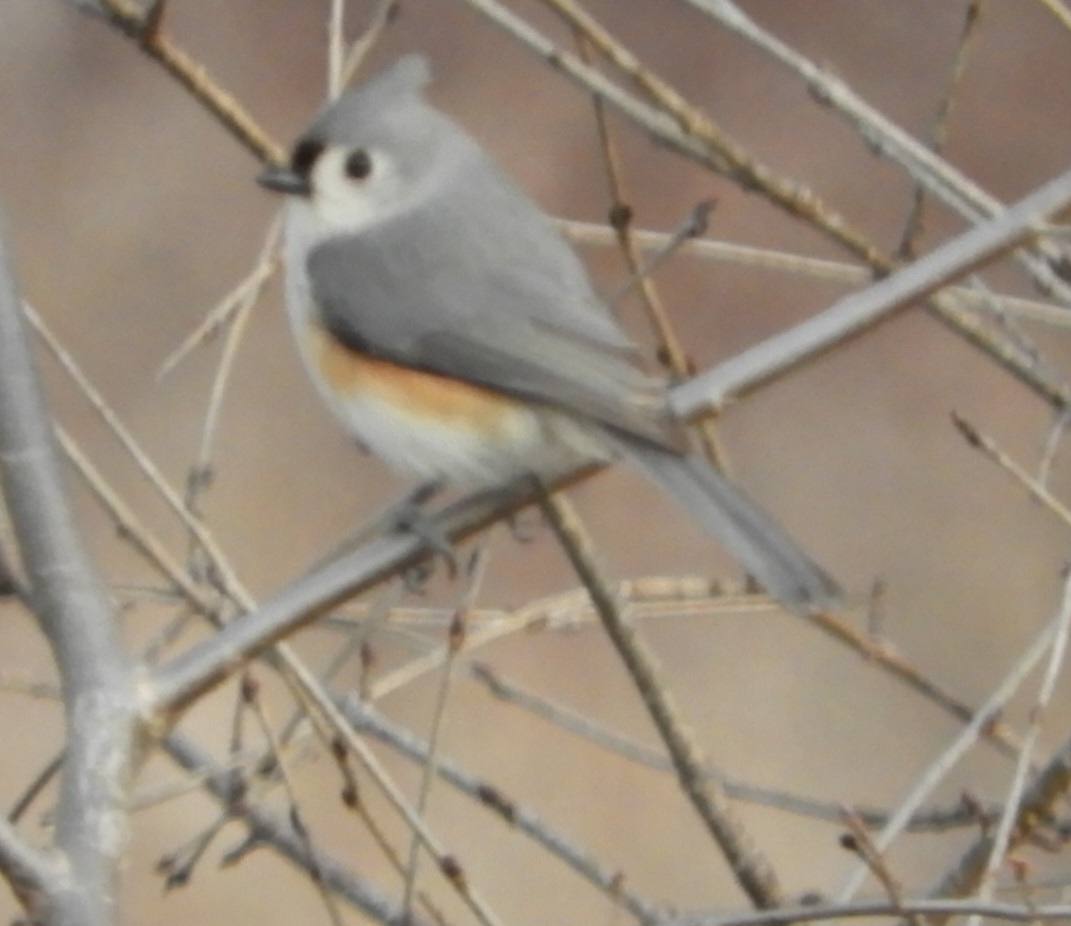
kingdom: Animalia
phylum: Chordata
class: Aves
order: Passeriformes
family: Paridae
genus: Baeolophus
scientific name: Baeolophus bicolor
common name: Tufted titmouse
